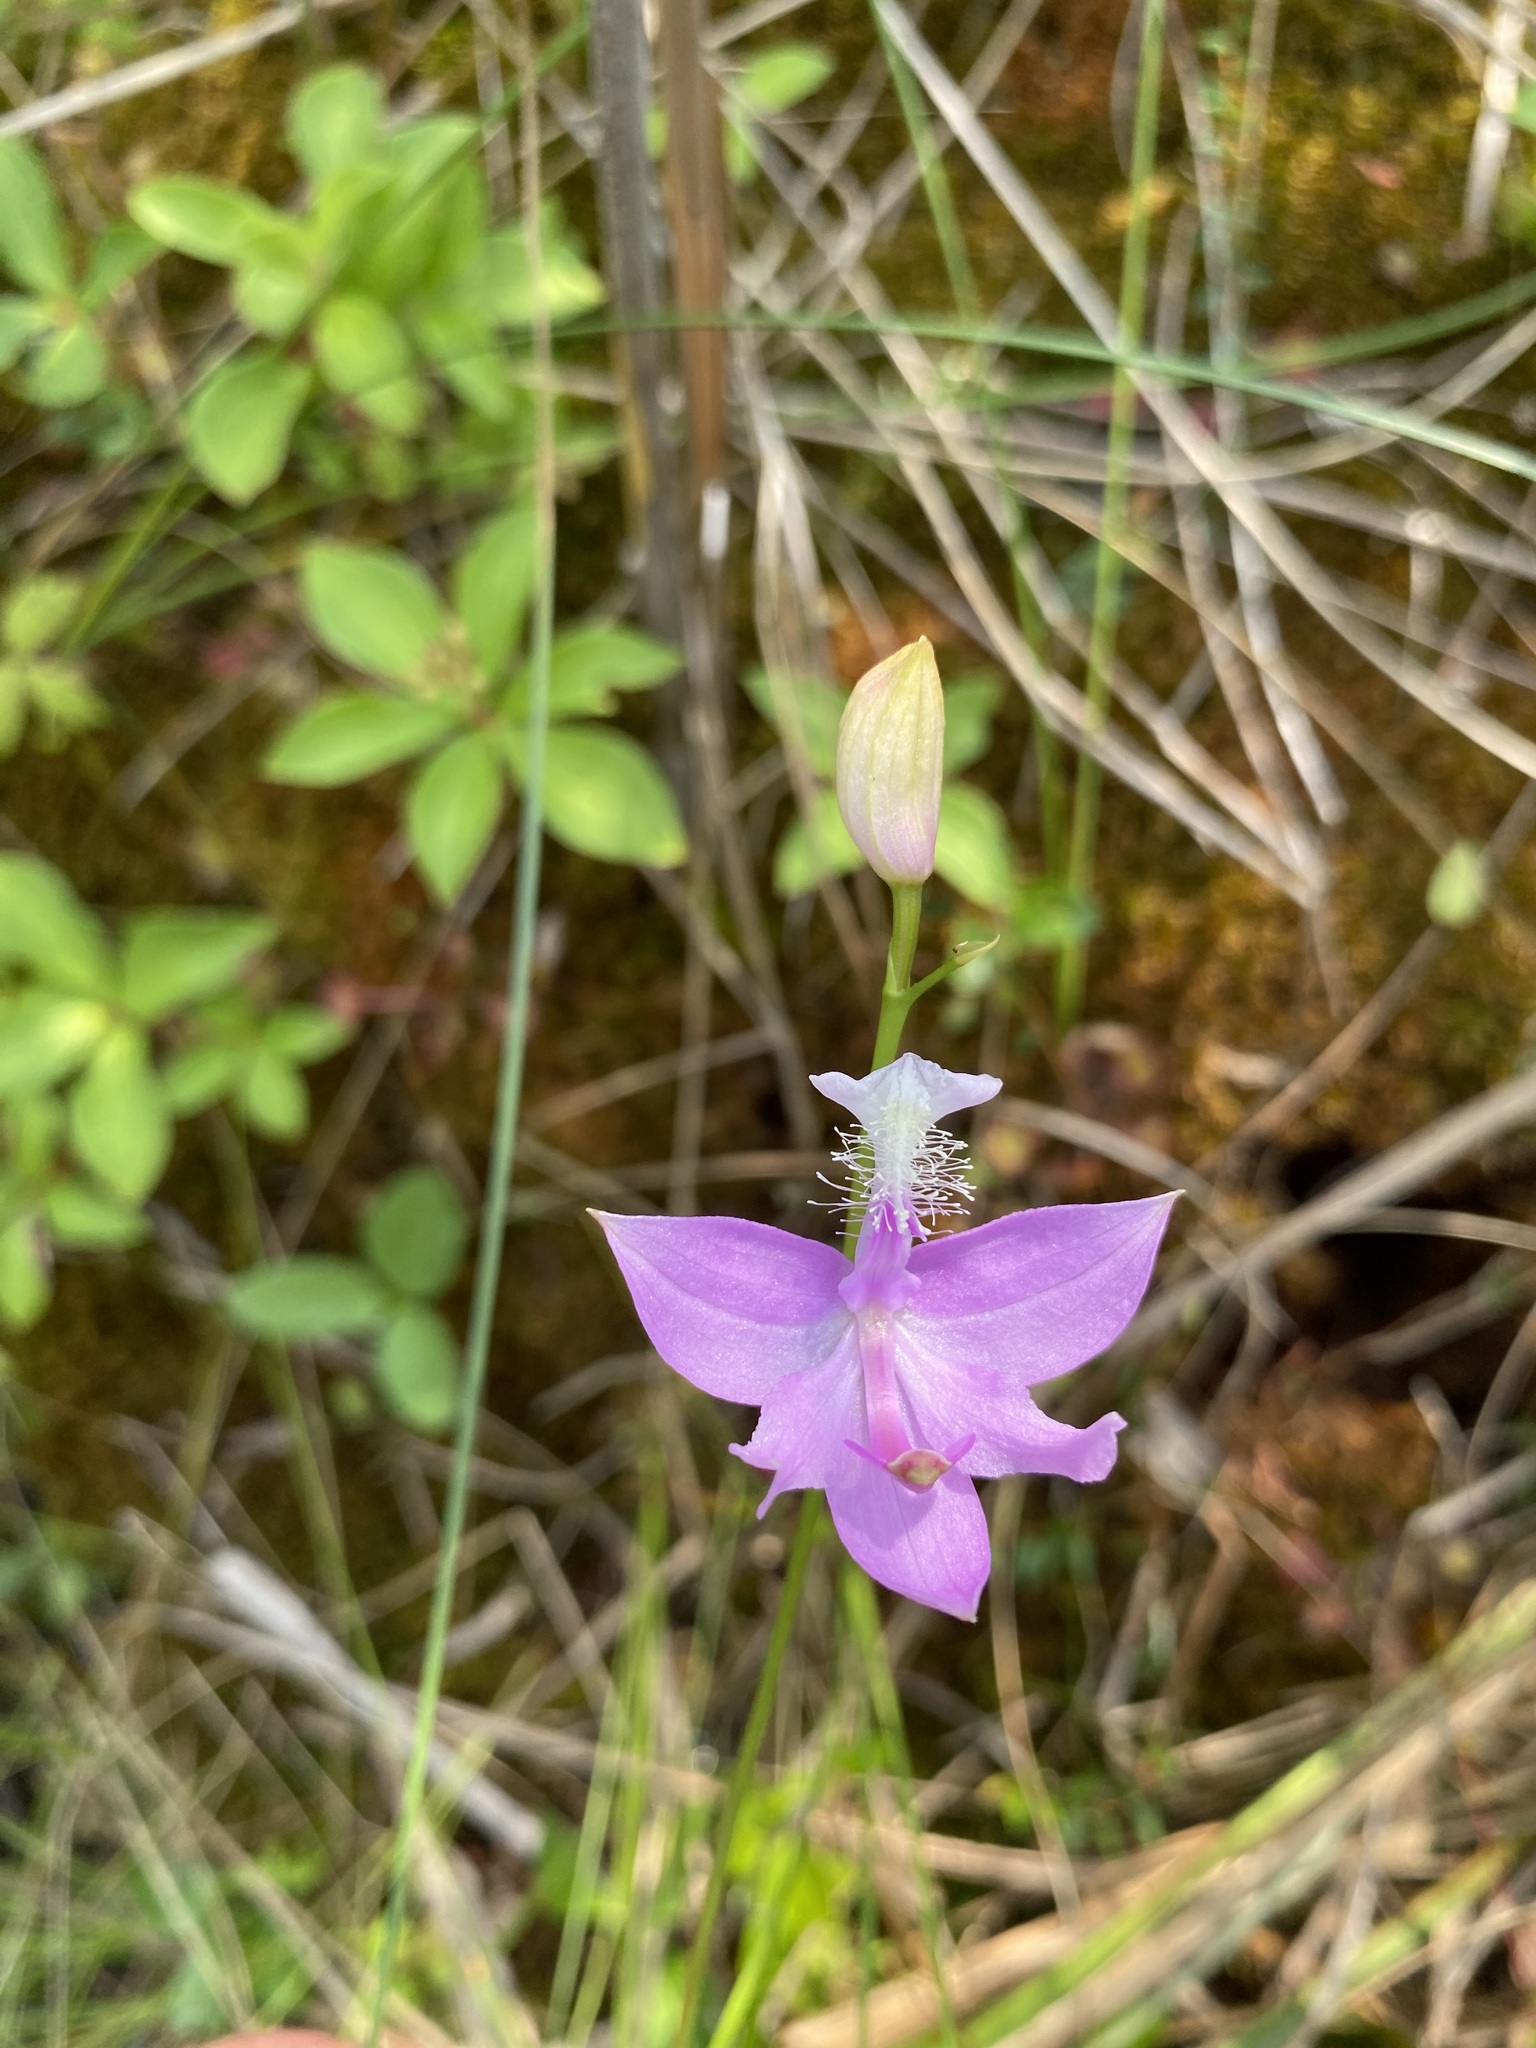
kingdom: Plantae
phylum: Tracheophyta
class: Liliopsida
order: Asparagales
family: Orchidaceae
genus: Calopogon
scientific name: Calopogon tuberosus
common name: Grass-pink
